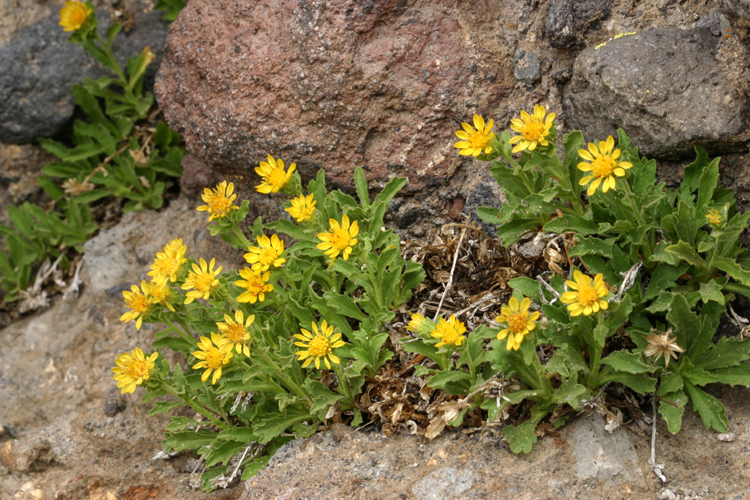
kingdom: Plantae
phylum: Tracheophyta
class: Magnoliopsida
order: Asterales
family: Asteraceae
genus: Toiyabea
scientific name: Toiyabea eximia
